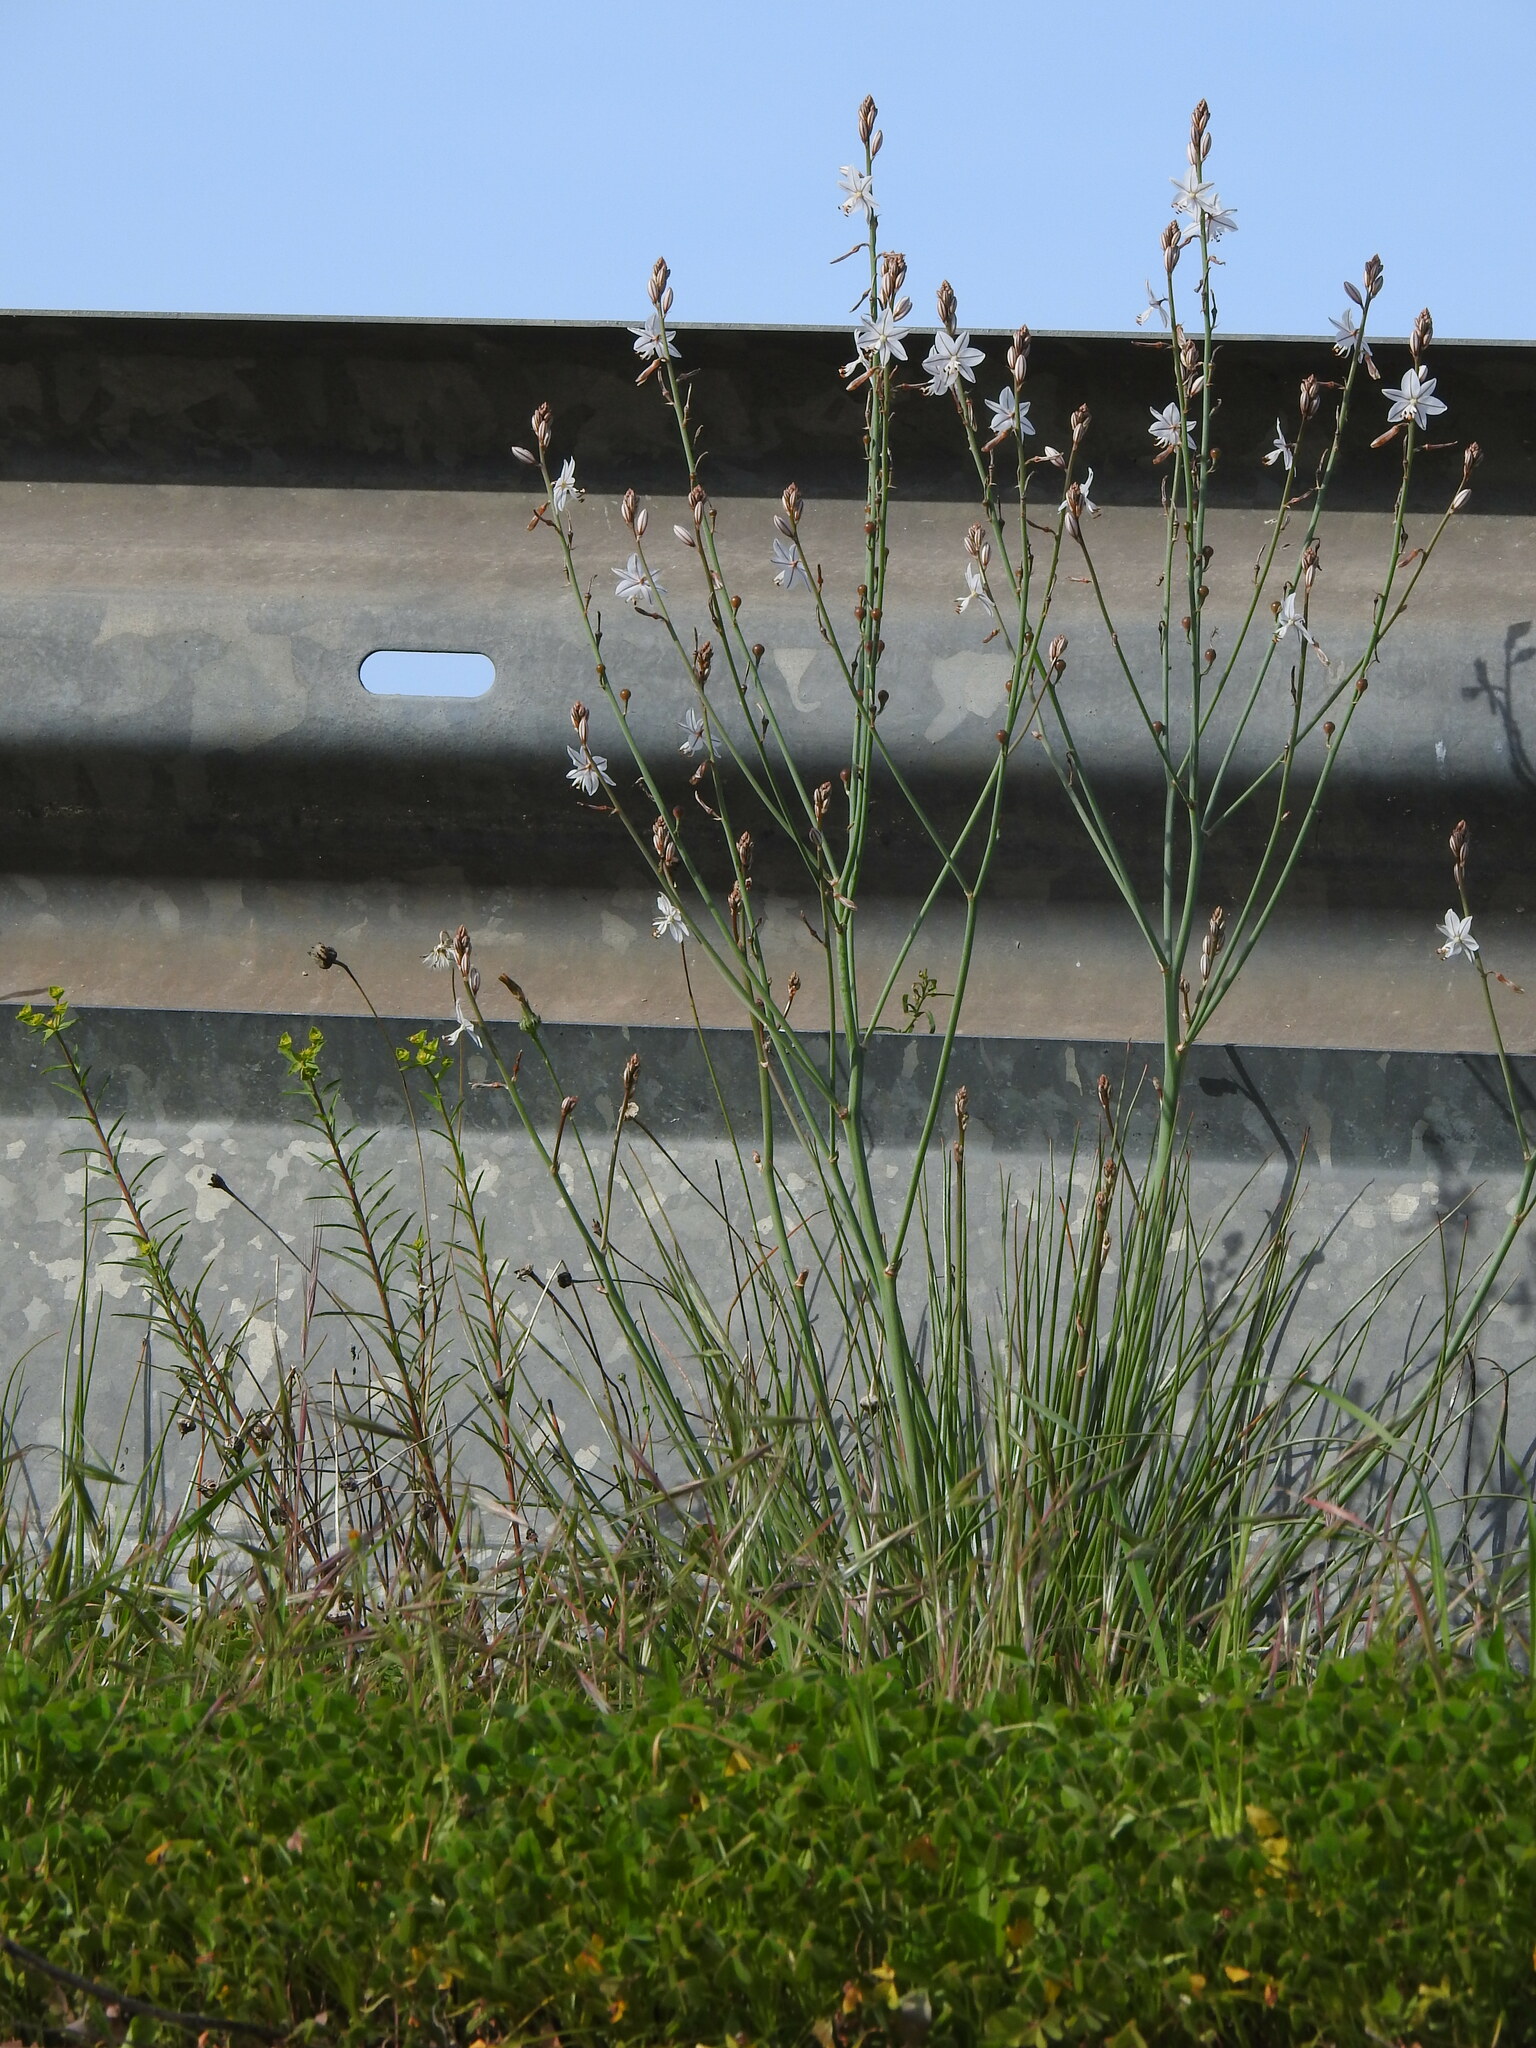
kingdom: Plantae
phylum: Tracheophyta
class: Liliopsida
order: Asparagales
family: Asphodelaceae
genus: Asphodelus
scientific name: Asphodelus fistulosus
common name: Onionweed
